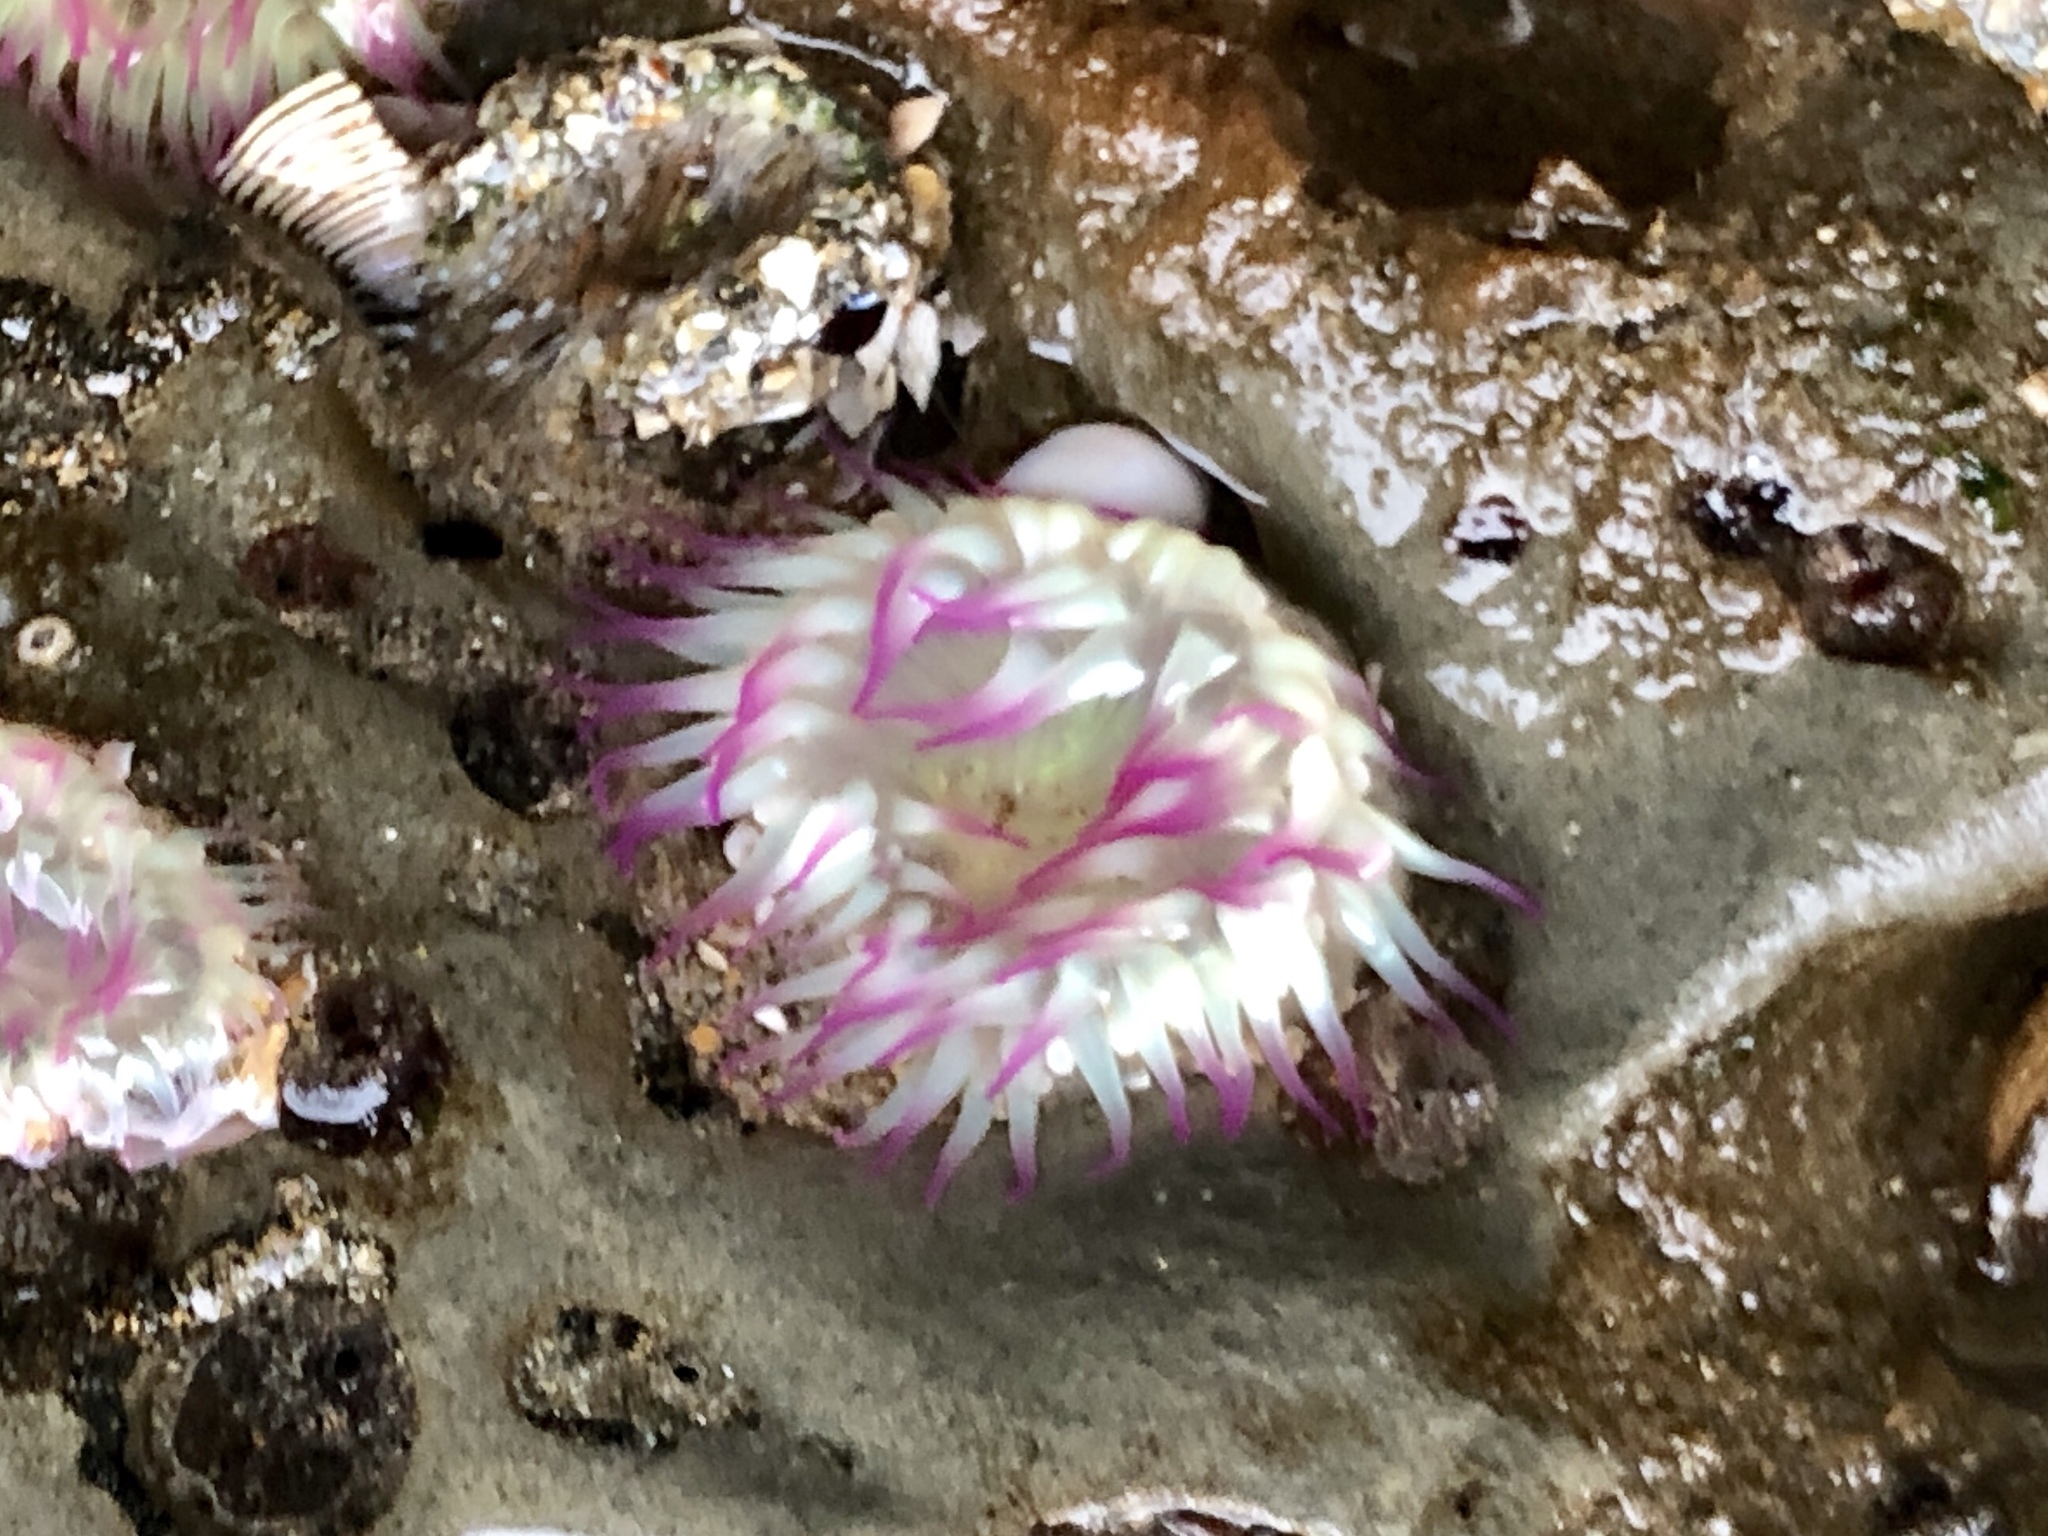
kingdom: Animalia
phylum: Cnidaria
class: Anthozoa
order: Actiniaria
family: Actiniidae
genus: Anthopleura
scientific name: Anthopleura elegantissima
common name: Clonal anemone
